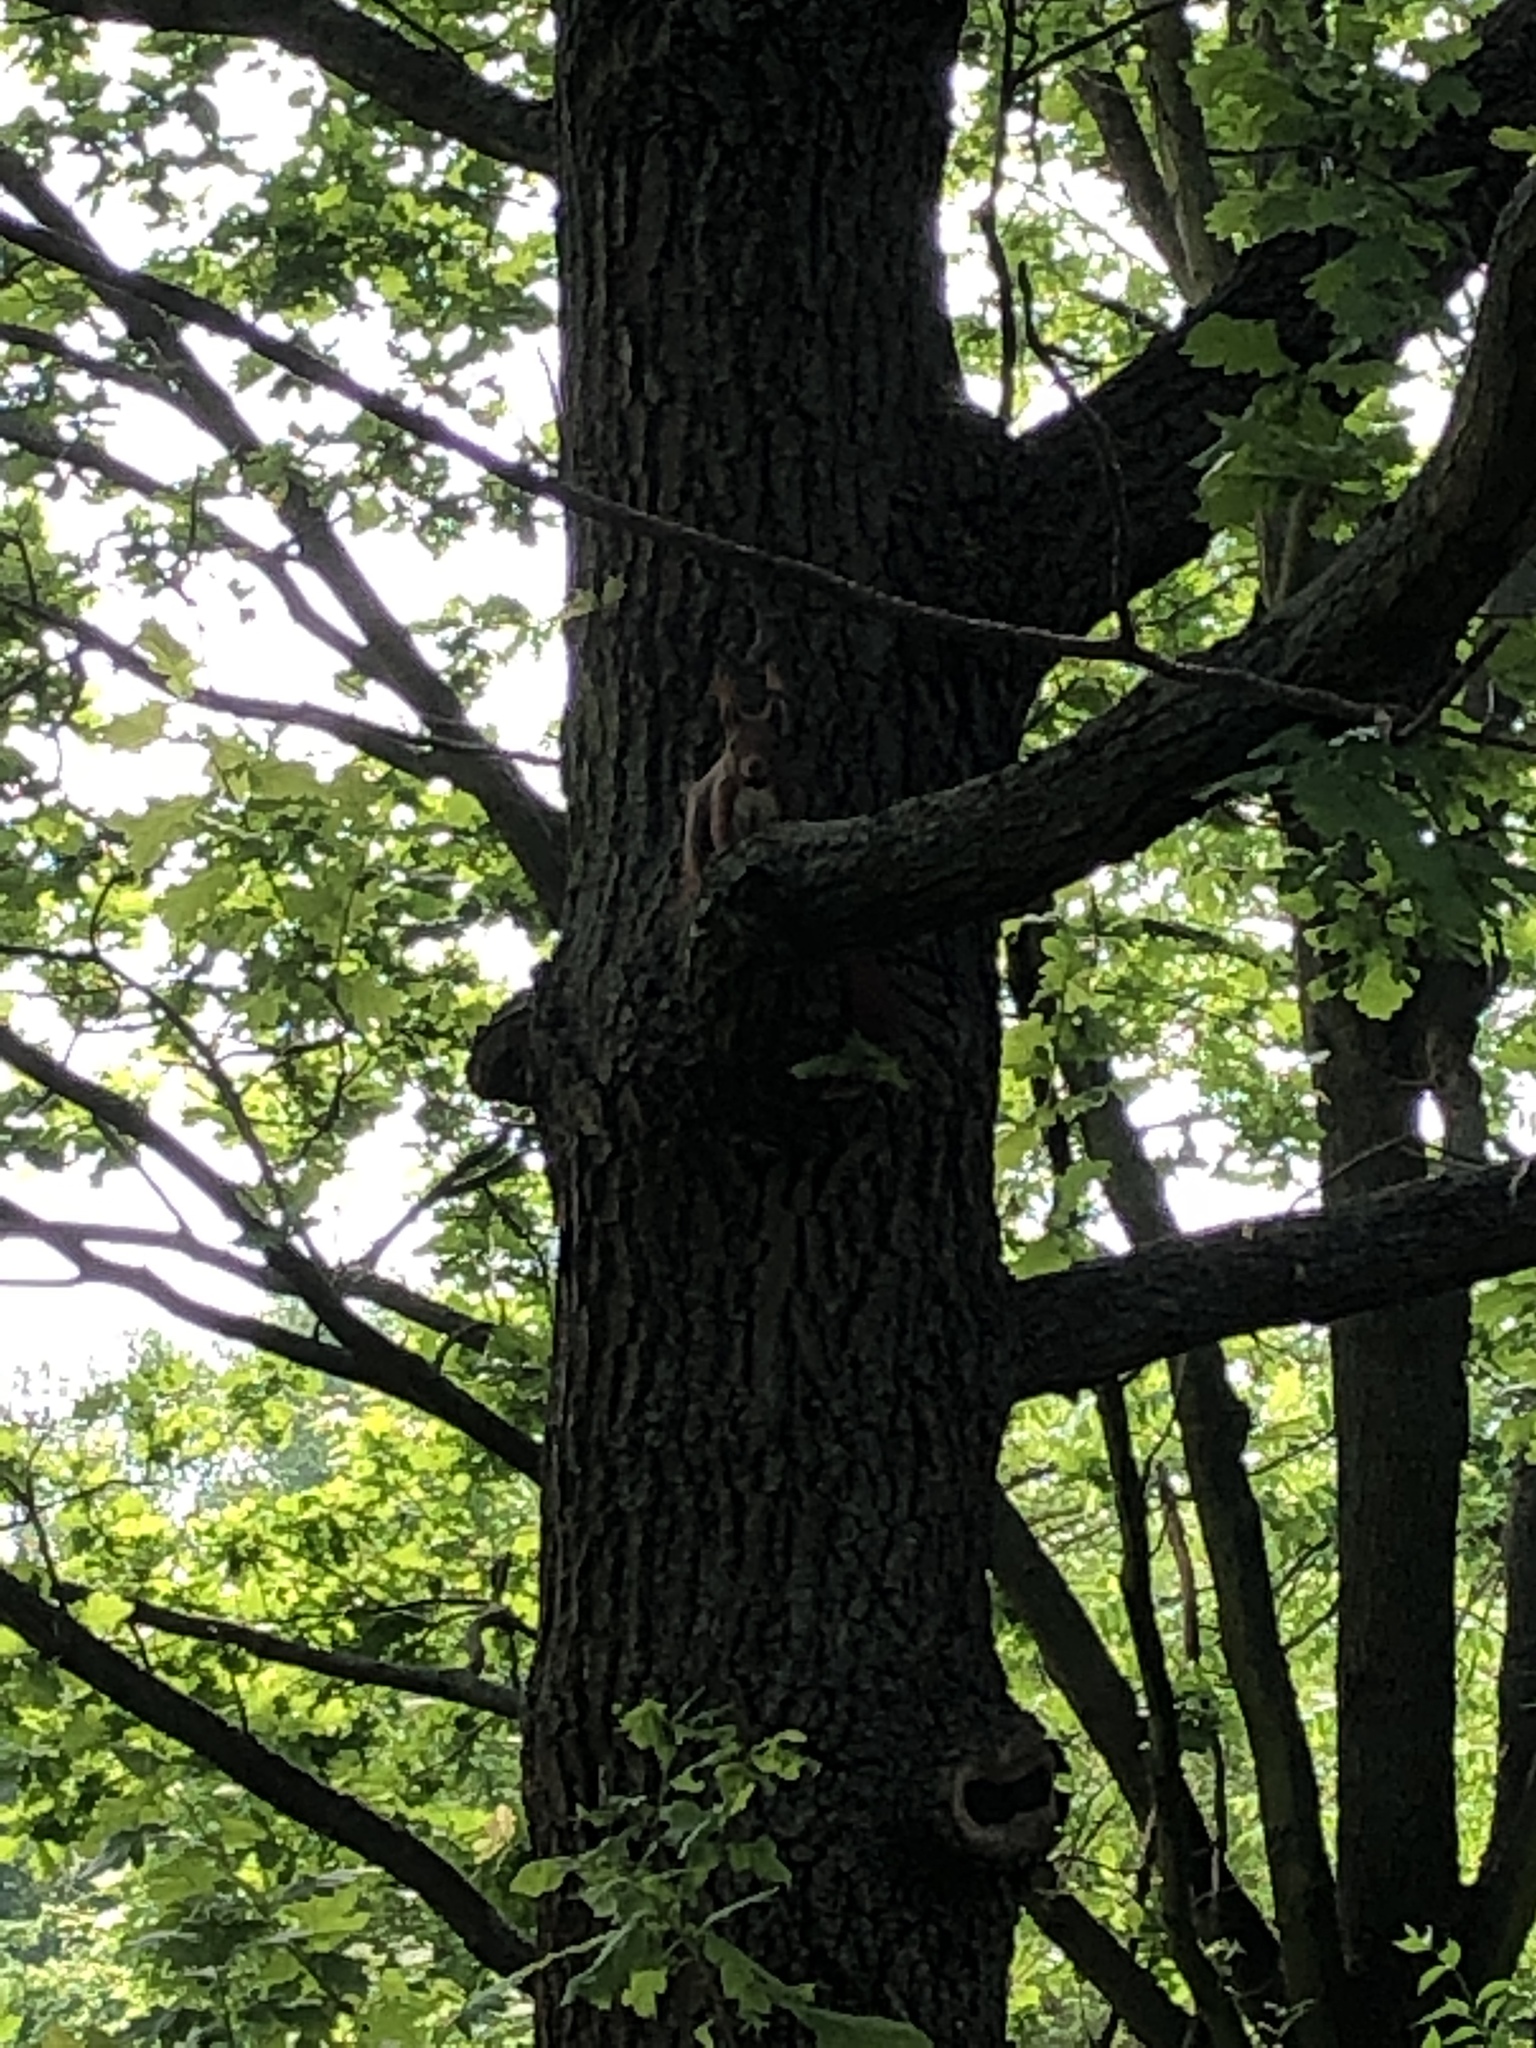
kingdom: Animalia
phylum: Chordata
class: Mammalia
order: Rodentia
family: Sciuridae
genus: Sciurus
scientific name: Sciurus vulgaris
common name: Eurasian red squirrel
